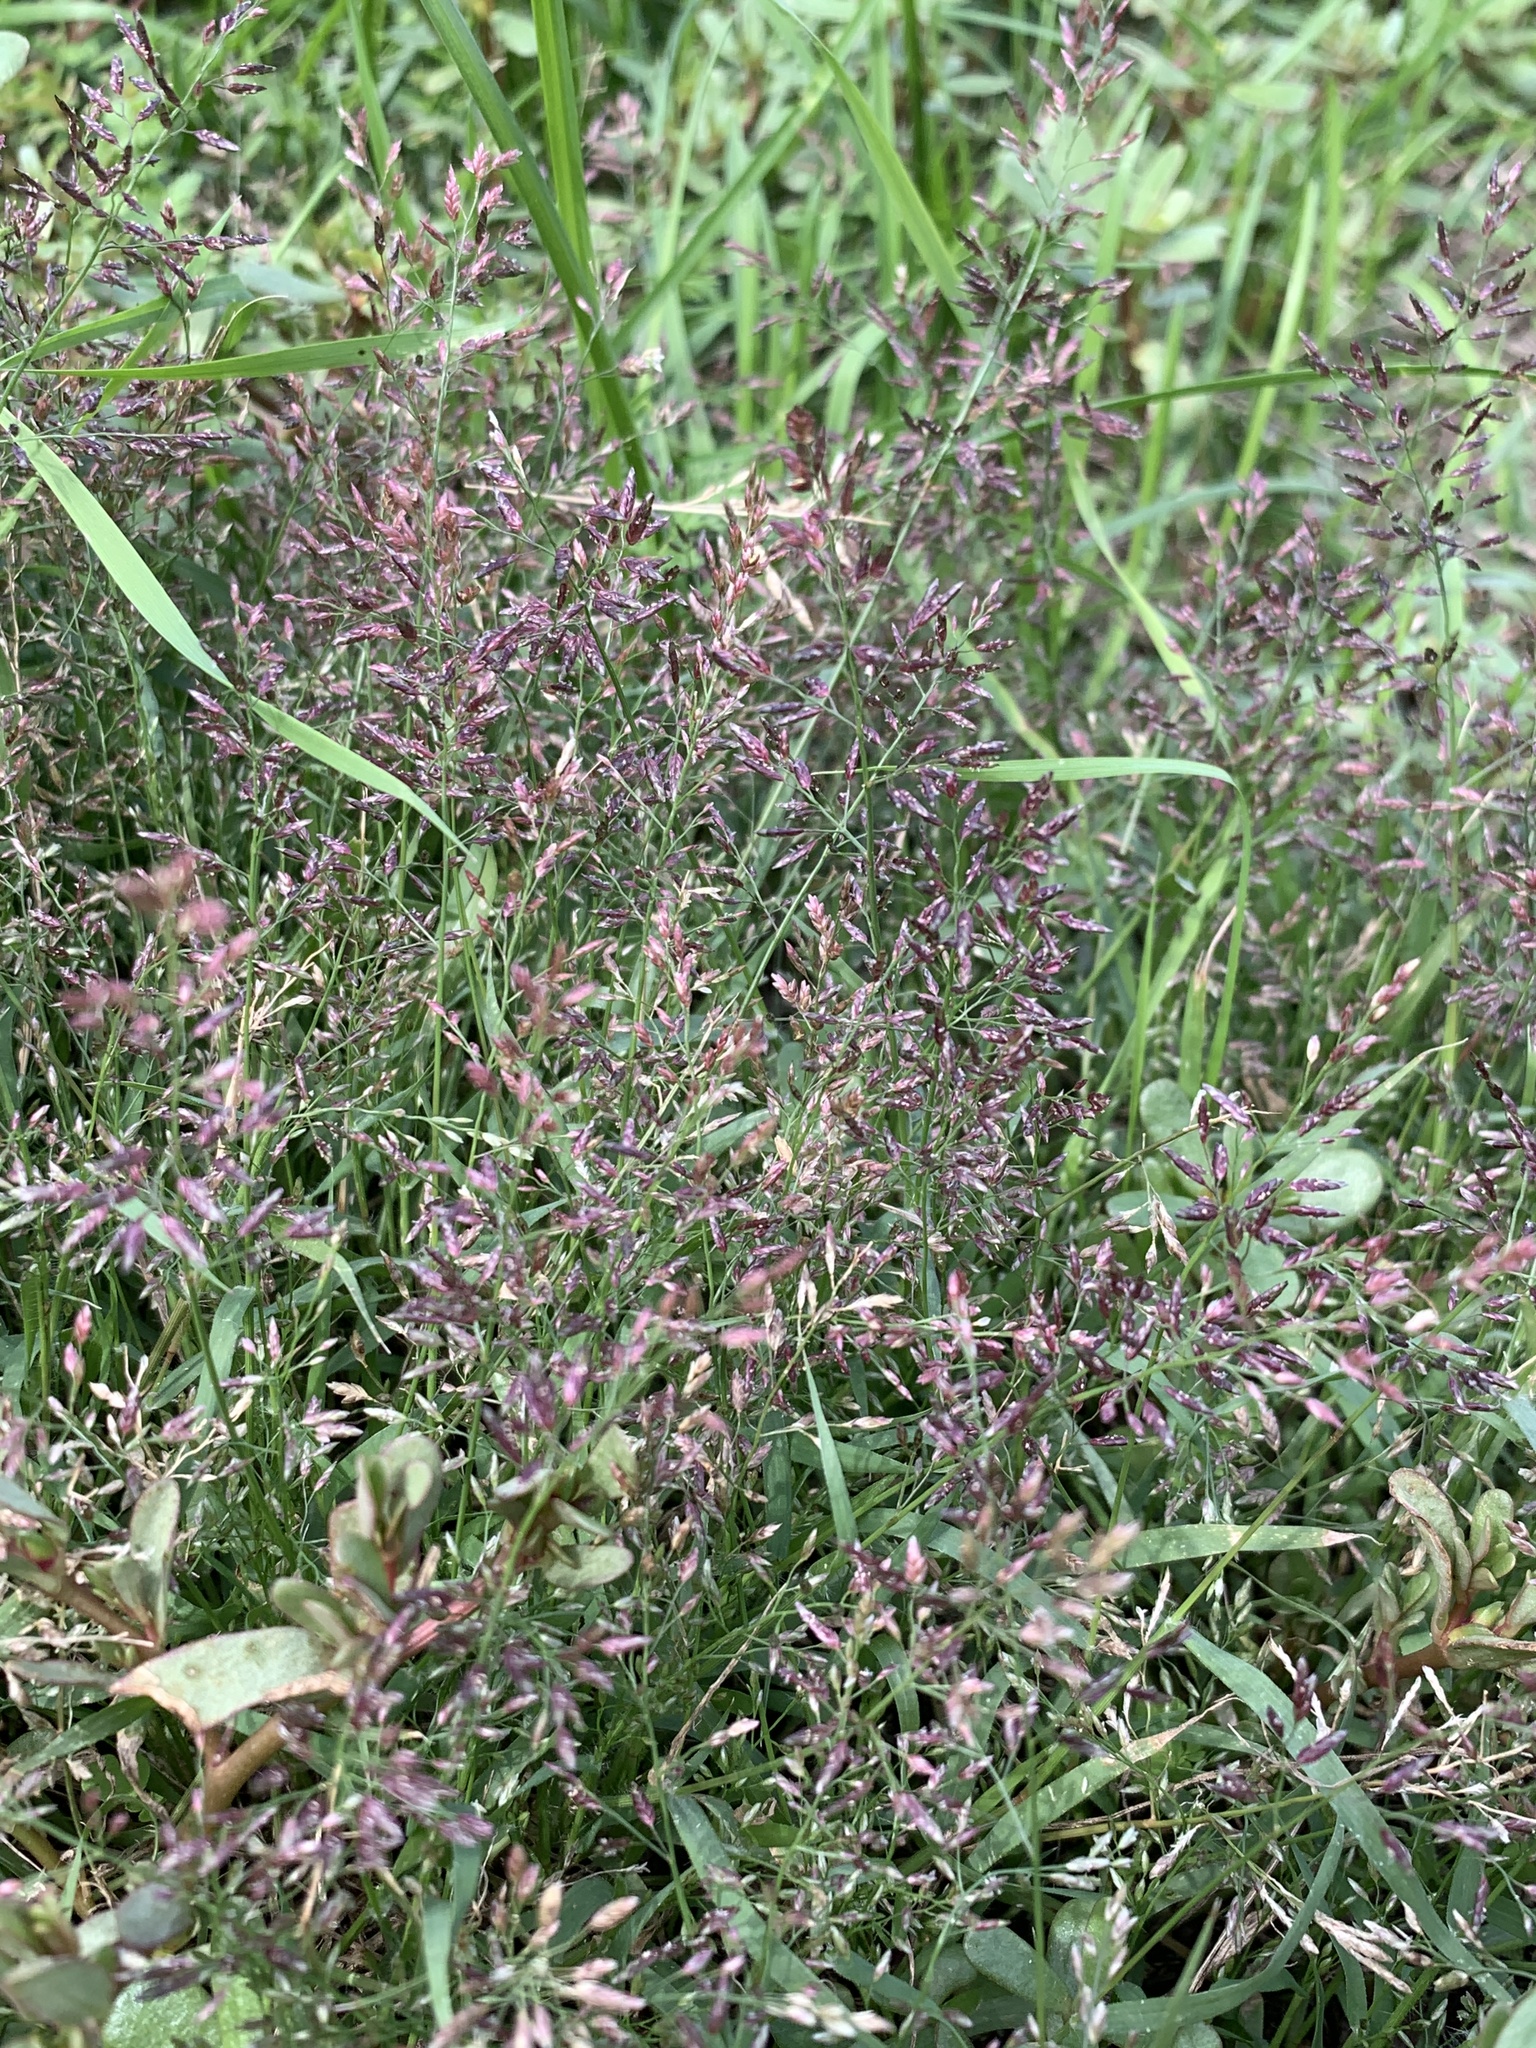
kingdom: Plantae
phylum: Tracheophyta
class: Liliopsida
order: Poales
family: Poaceae
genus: Eragrostis
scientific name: Eragrostis minor
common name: Small love-grass
